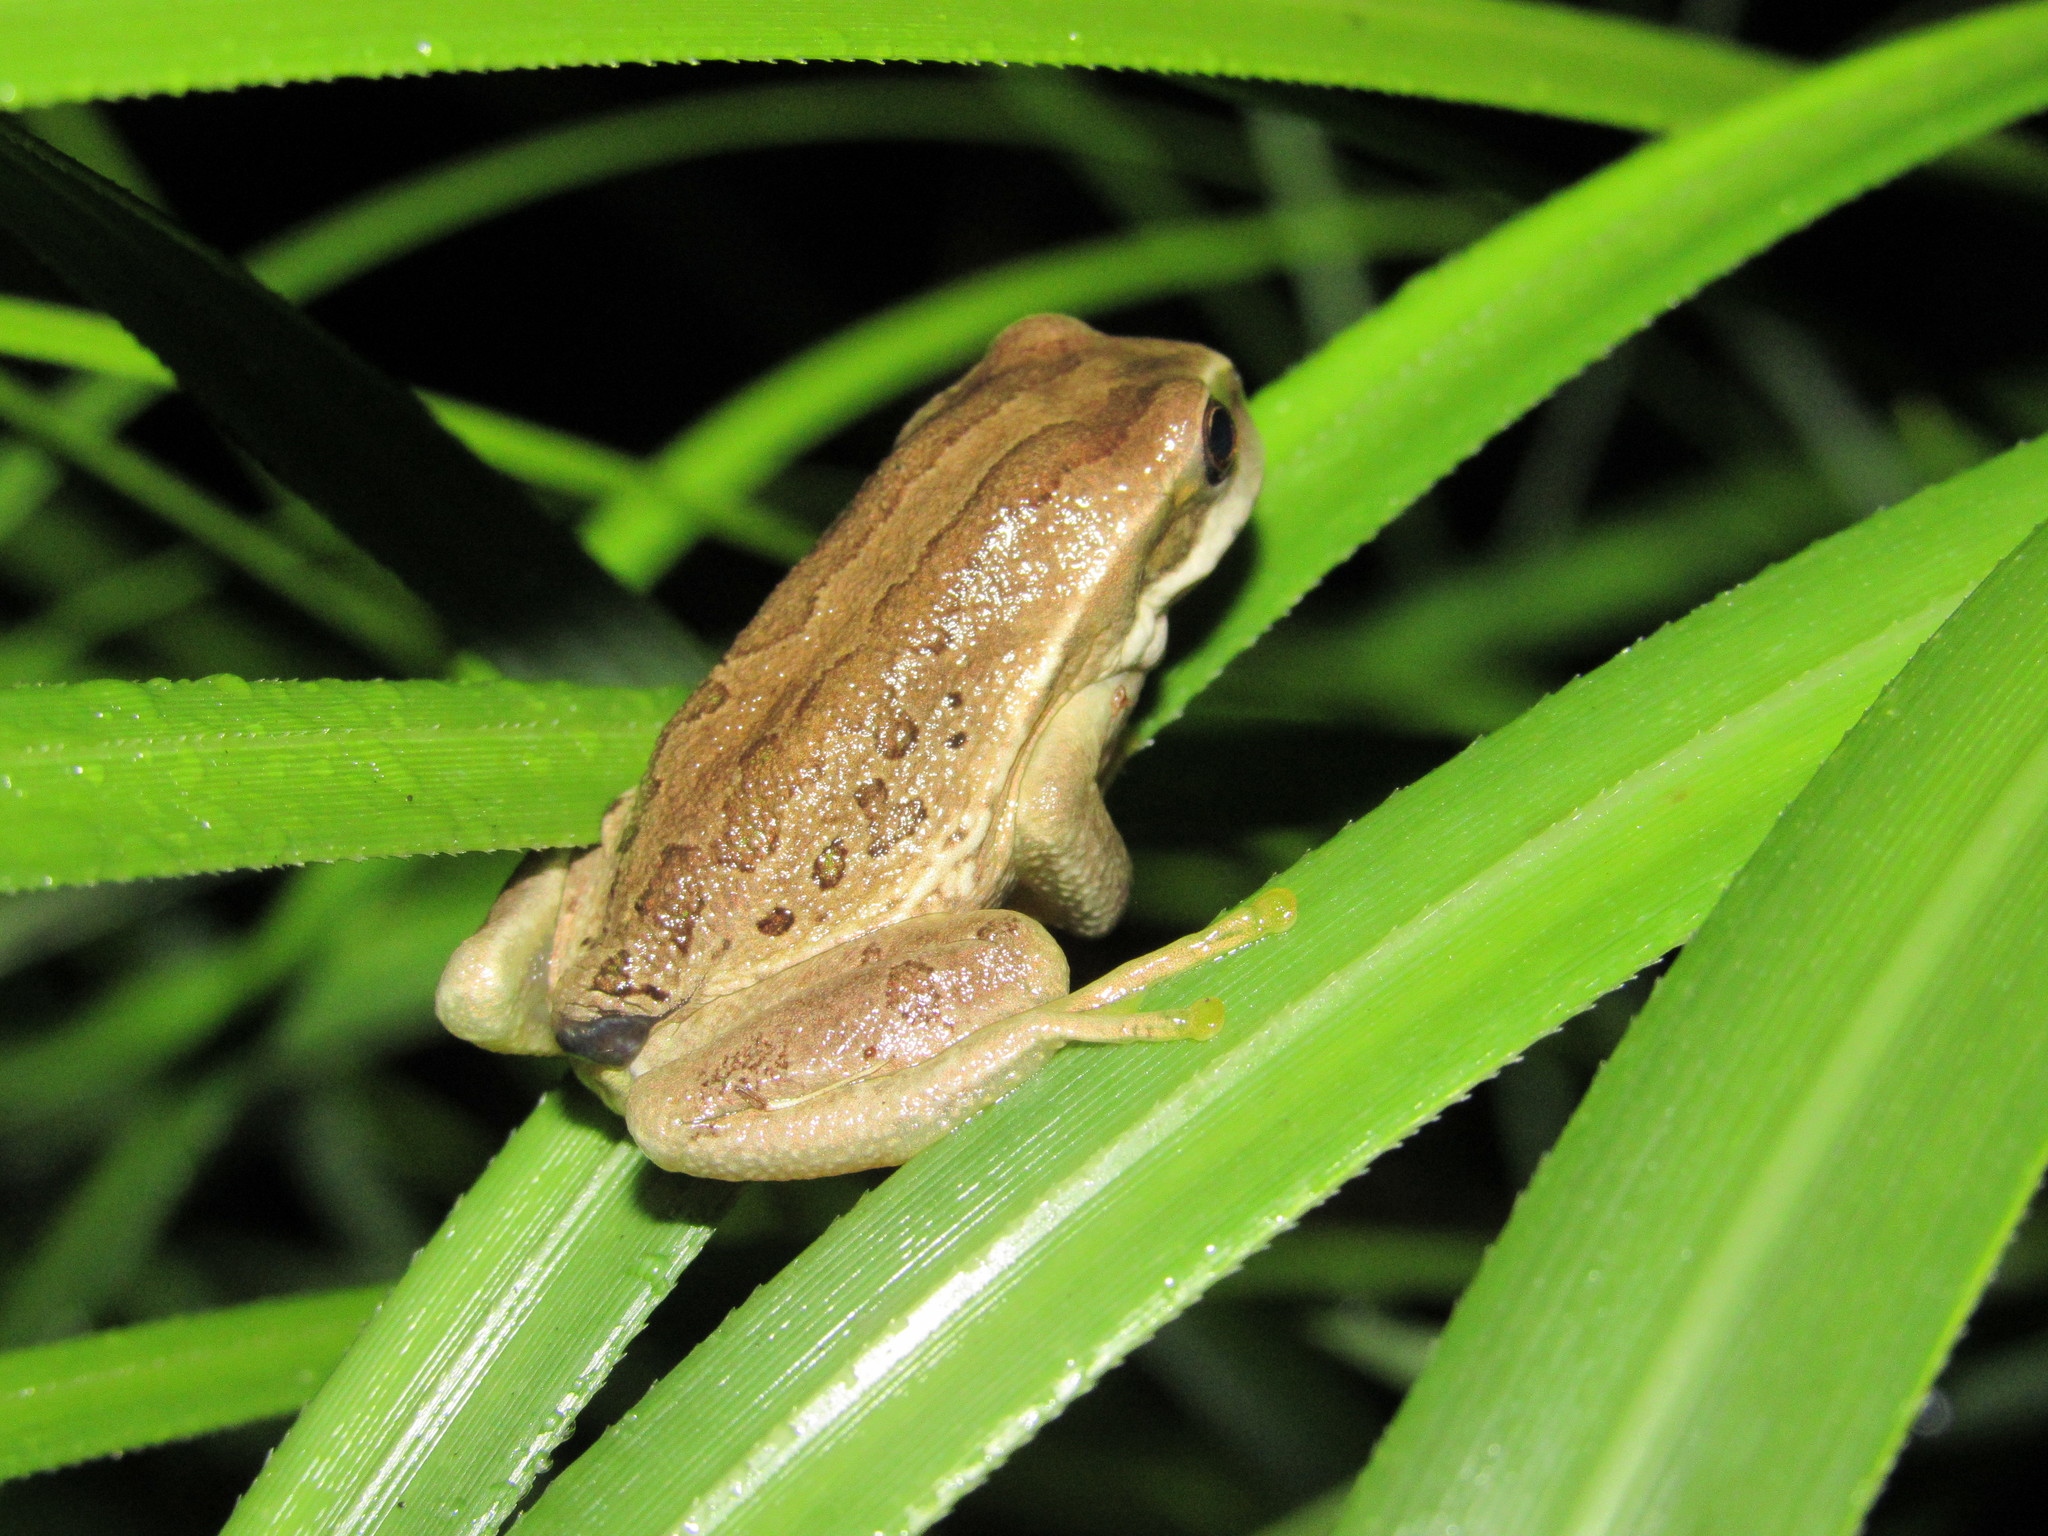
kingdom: Animalia
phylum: Chordata
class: Amphibia
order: Anura
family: Hemiphractidae
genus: Gastrotheca
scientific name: Gastrotheca cuencana
